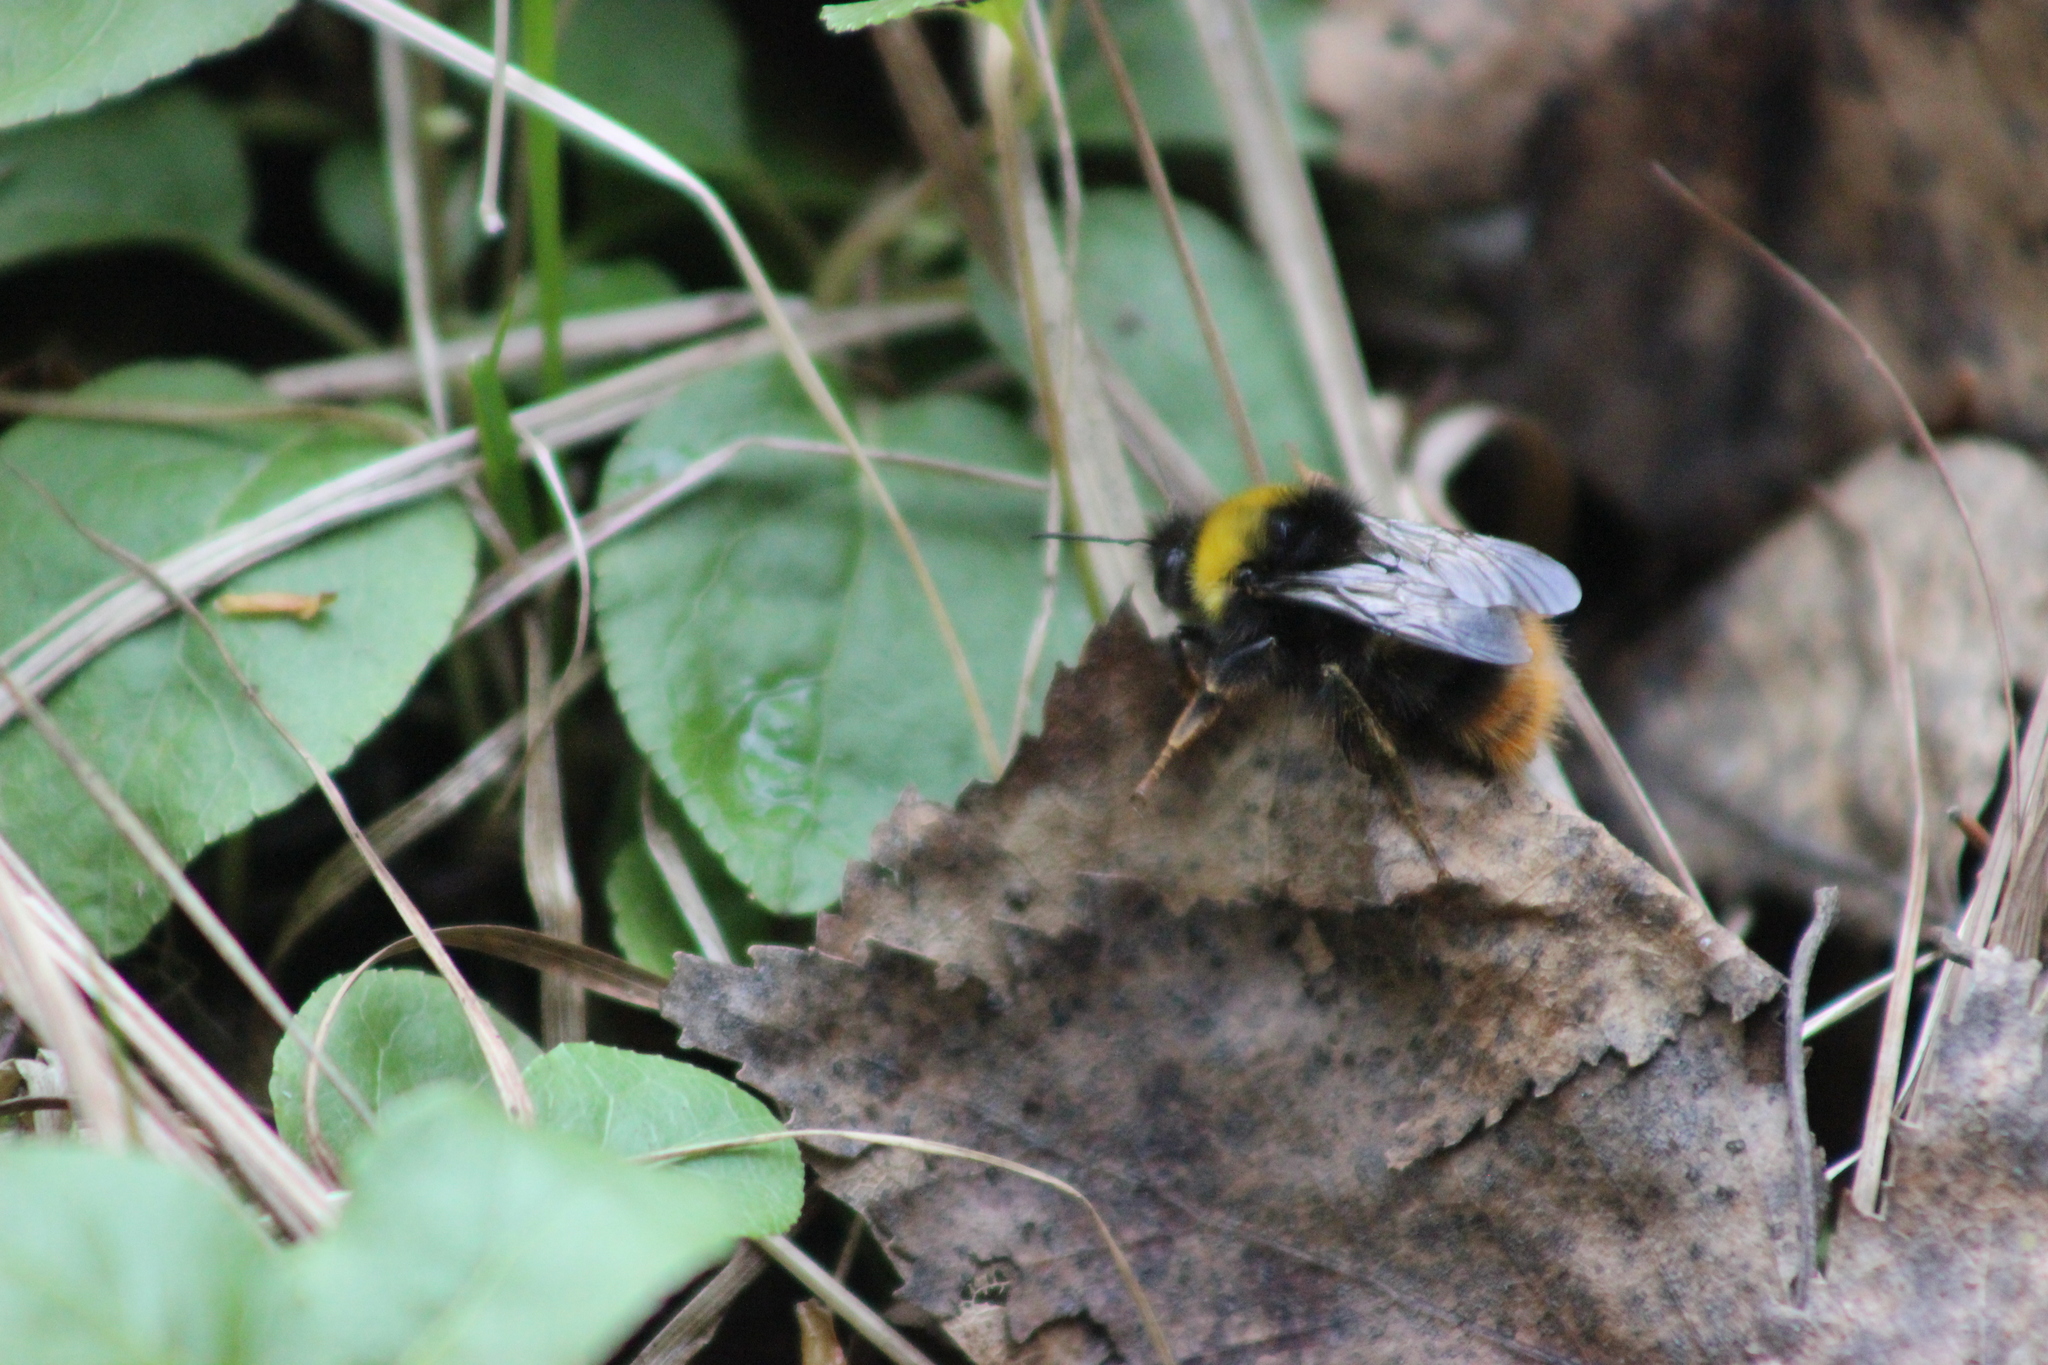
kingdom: Animalia
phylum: Arthropoda
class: Insecta
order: Hymenoptera
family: Apidae
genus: Bombus
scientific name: Bombus pratorum
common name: Early humble-bee
